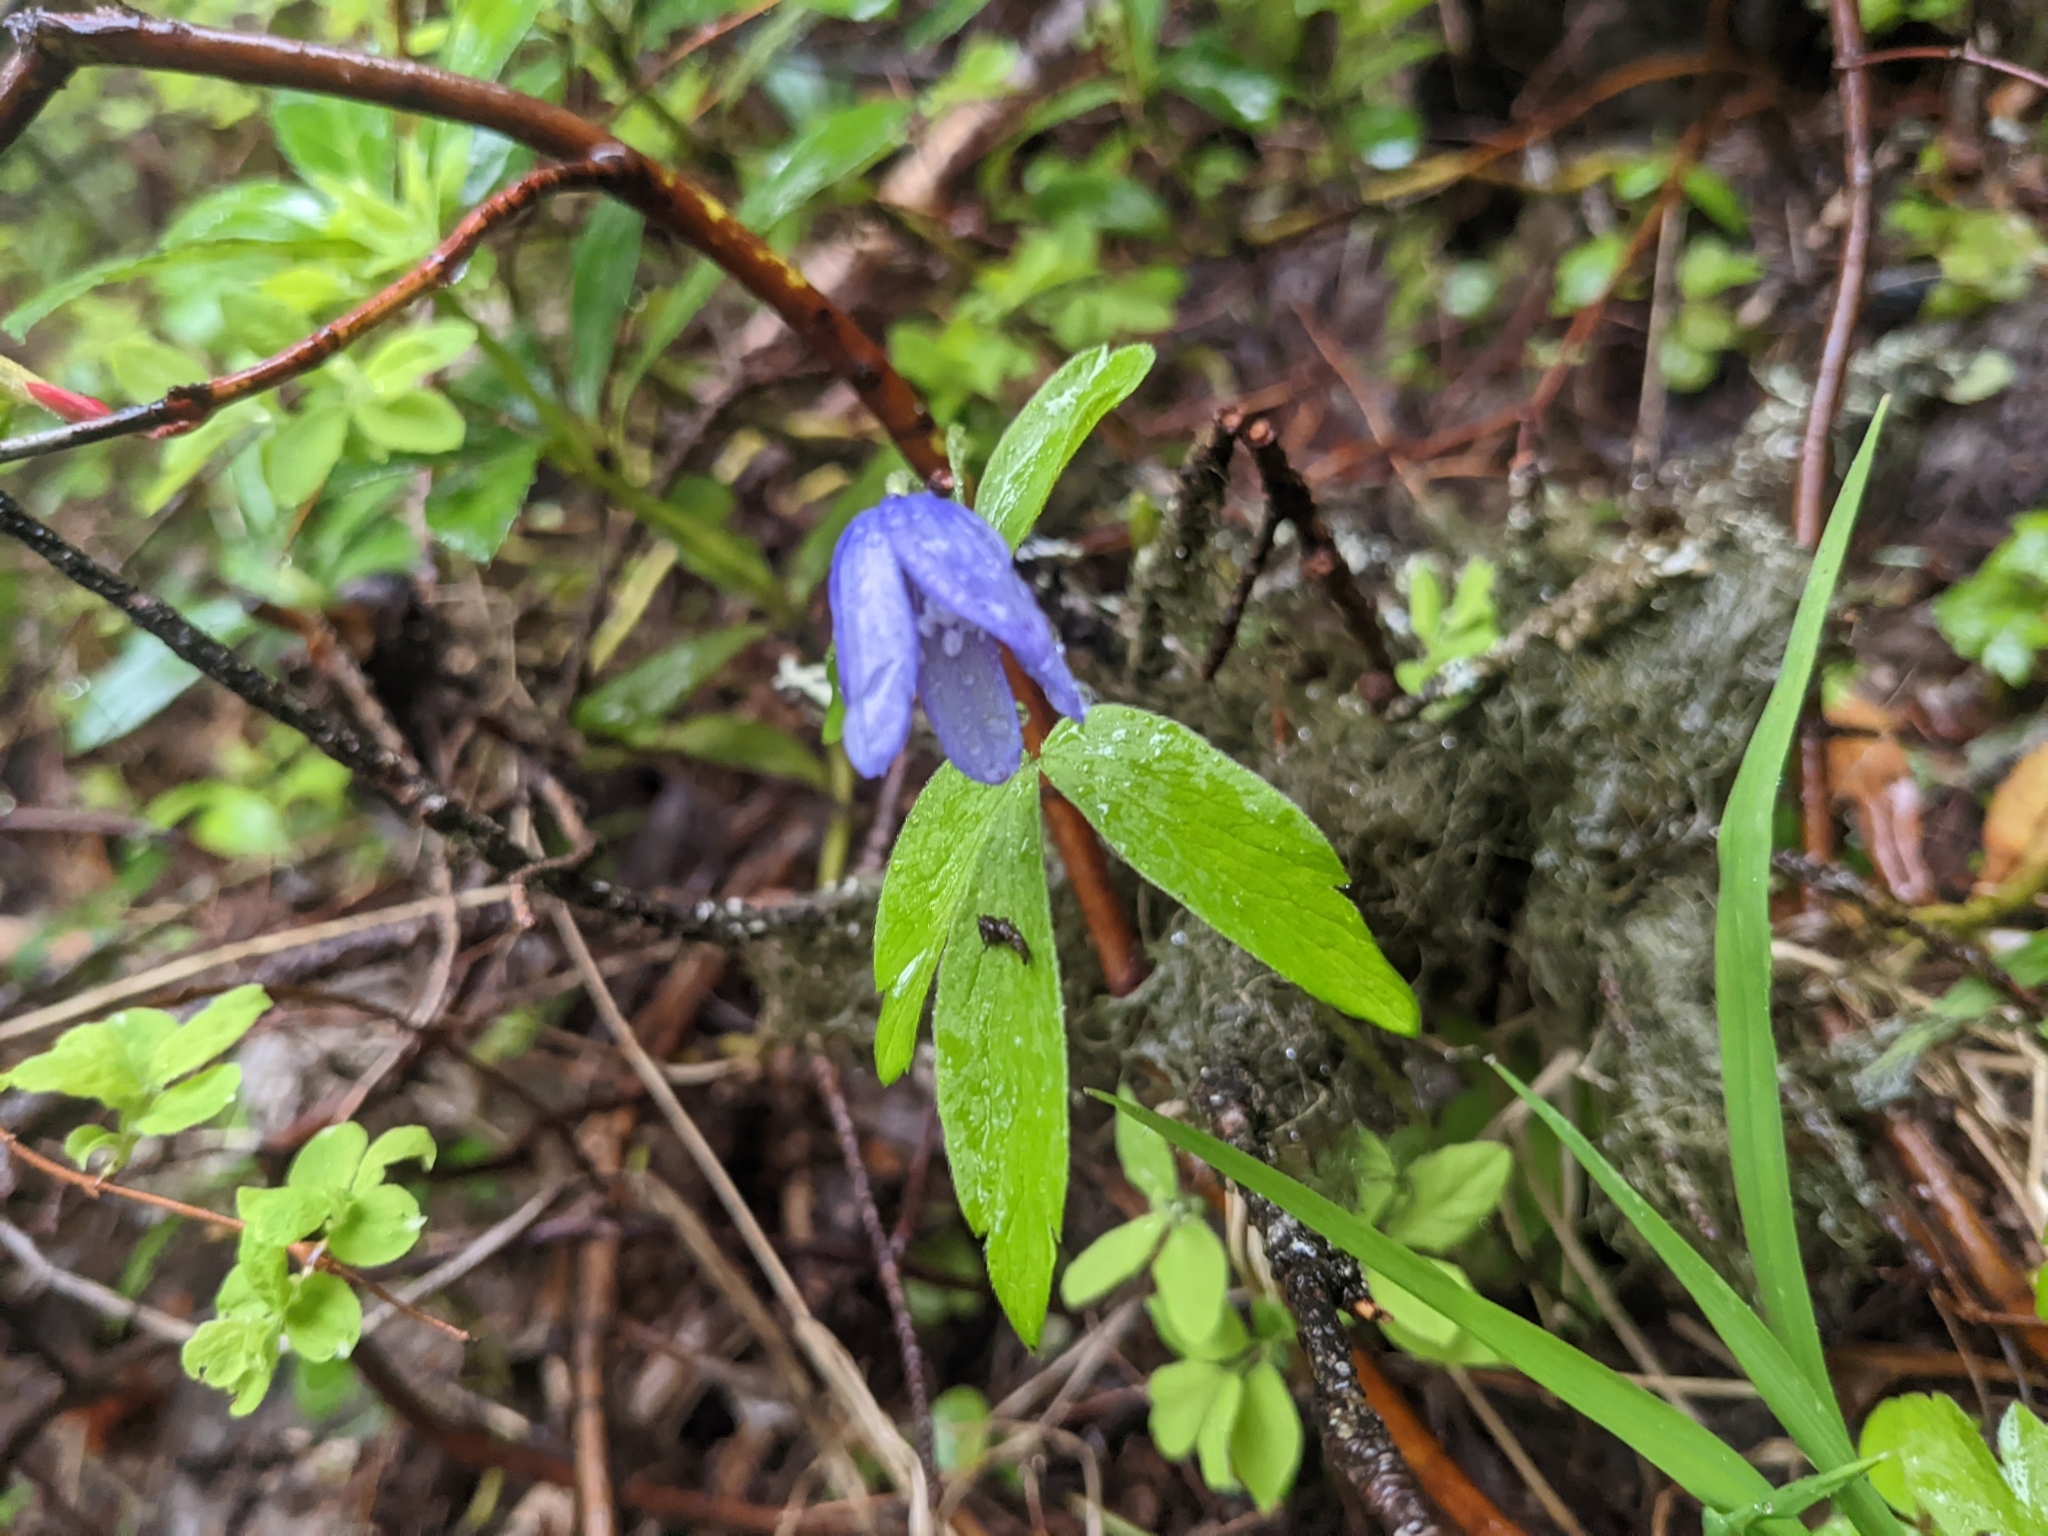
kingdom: Plantae
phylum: Tracheophyta
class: Magnoliopsida
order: Ranunculales
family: Ranunculaceae
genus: Anemone
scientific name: Anemone oregana
